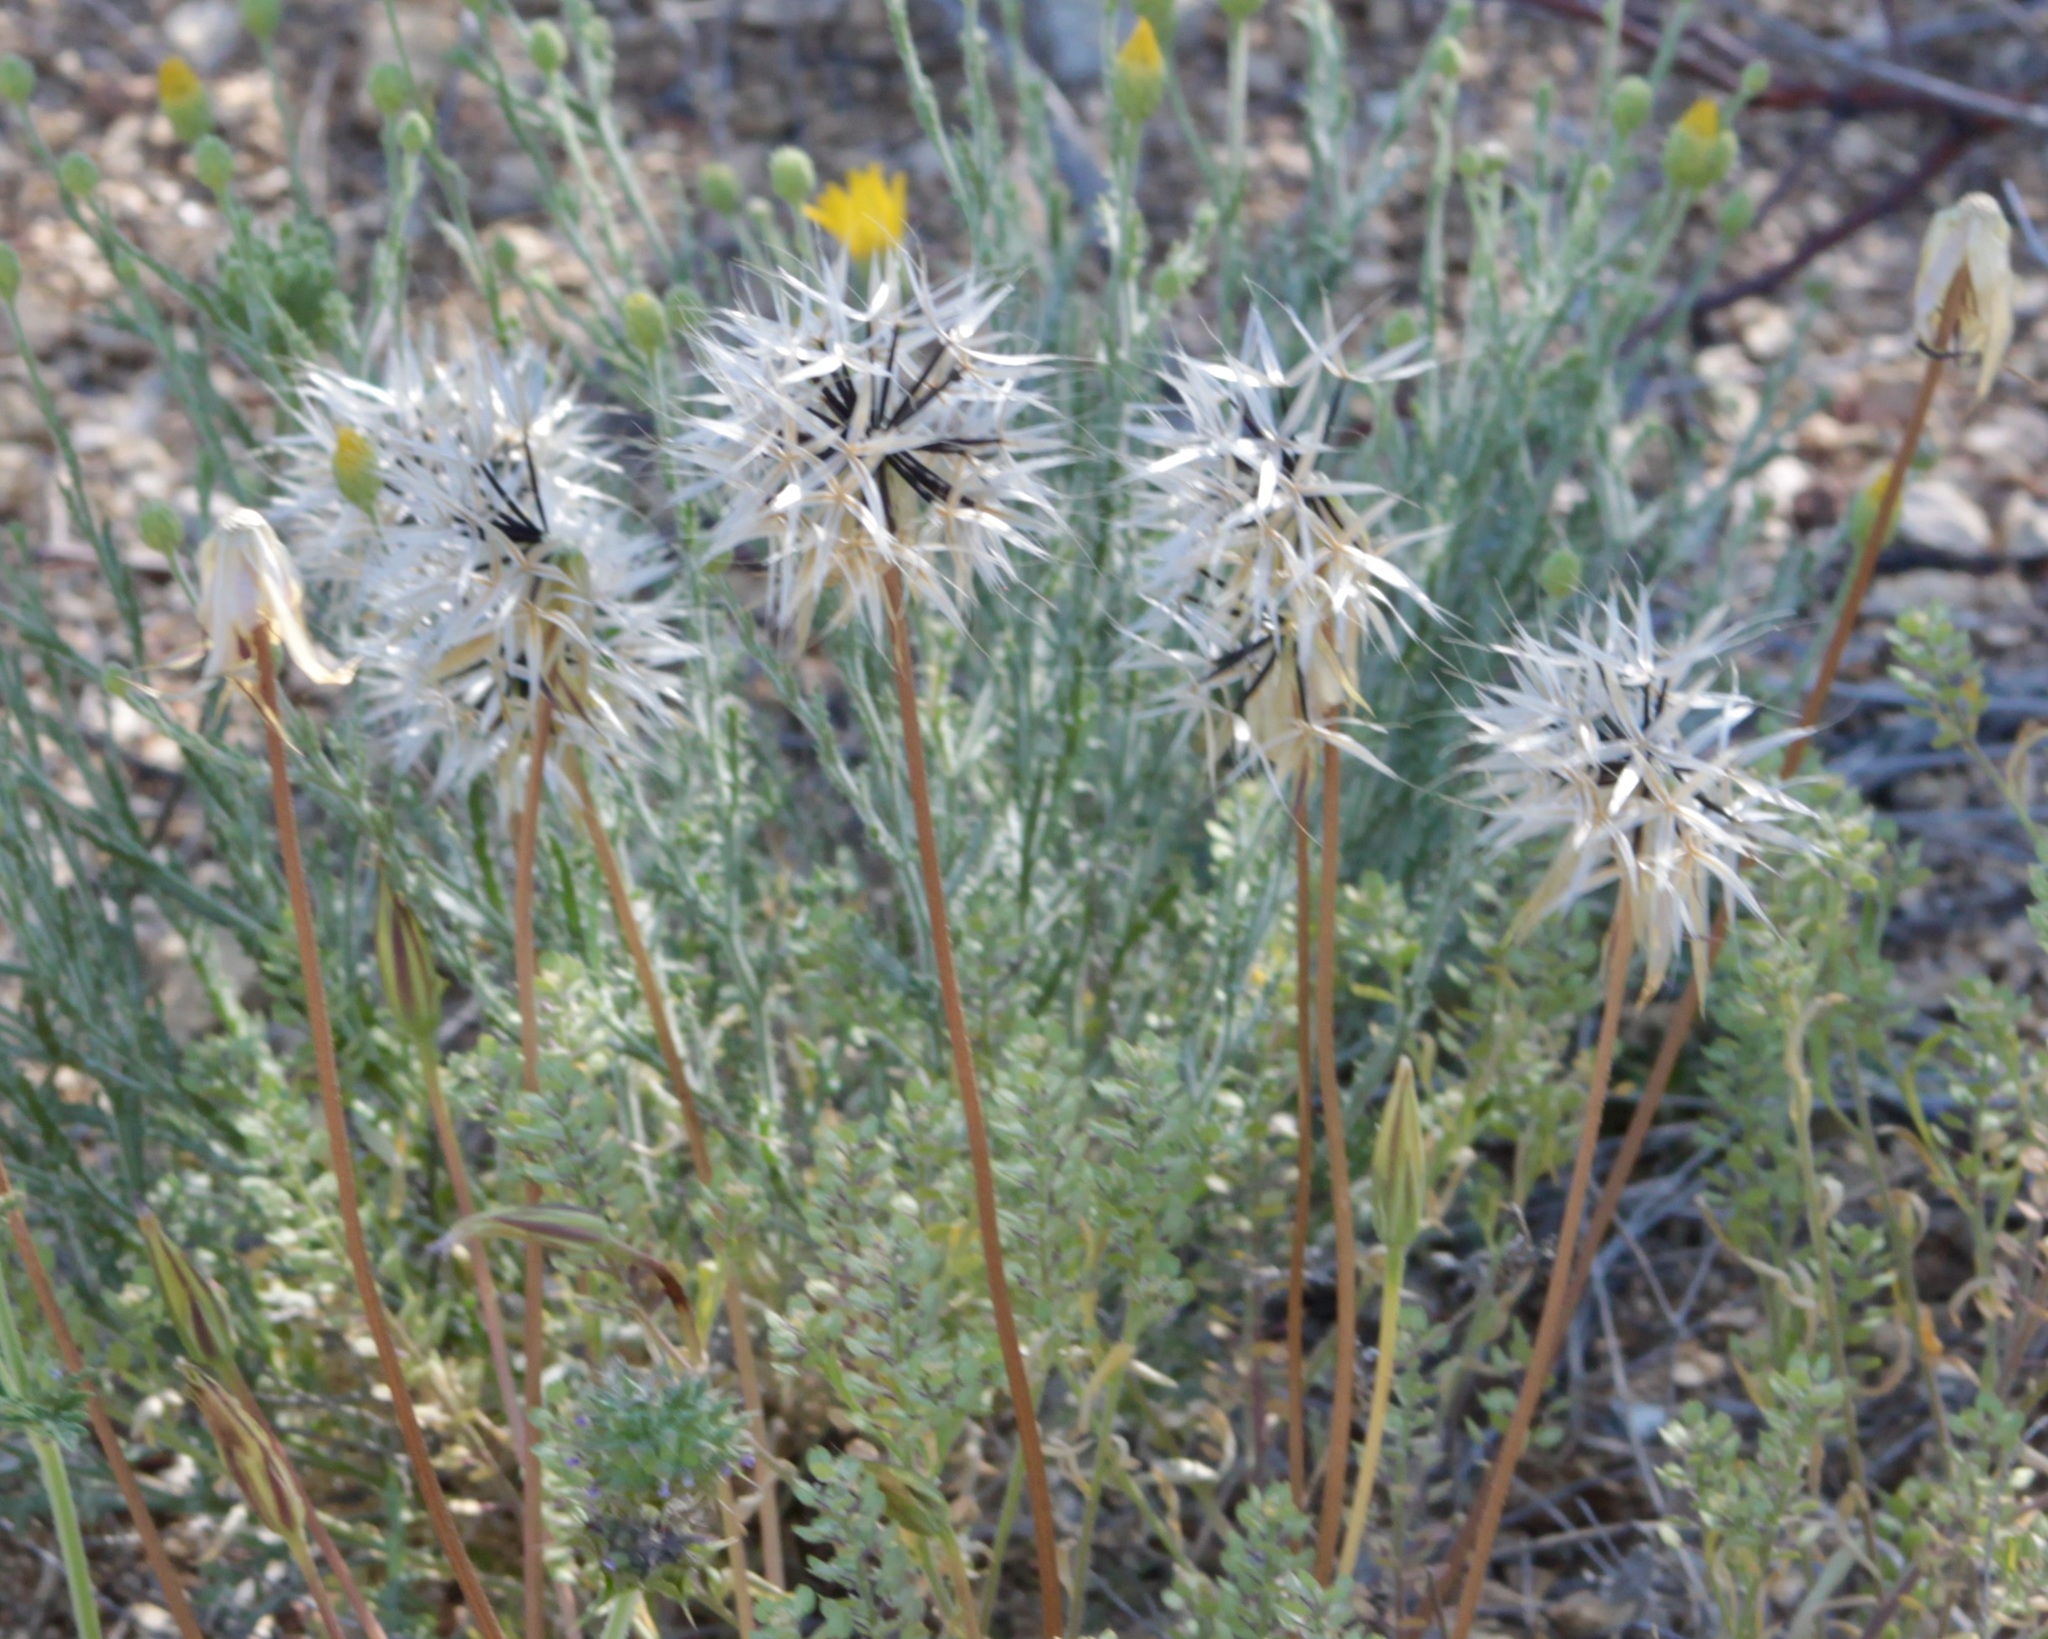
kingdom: Plantae
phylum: Tracheophyta
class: Magnoliopsida
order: Asterales
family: Asteraceae
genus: Microseris
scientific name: Microseris lindleyi
